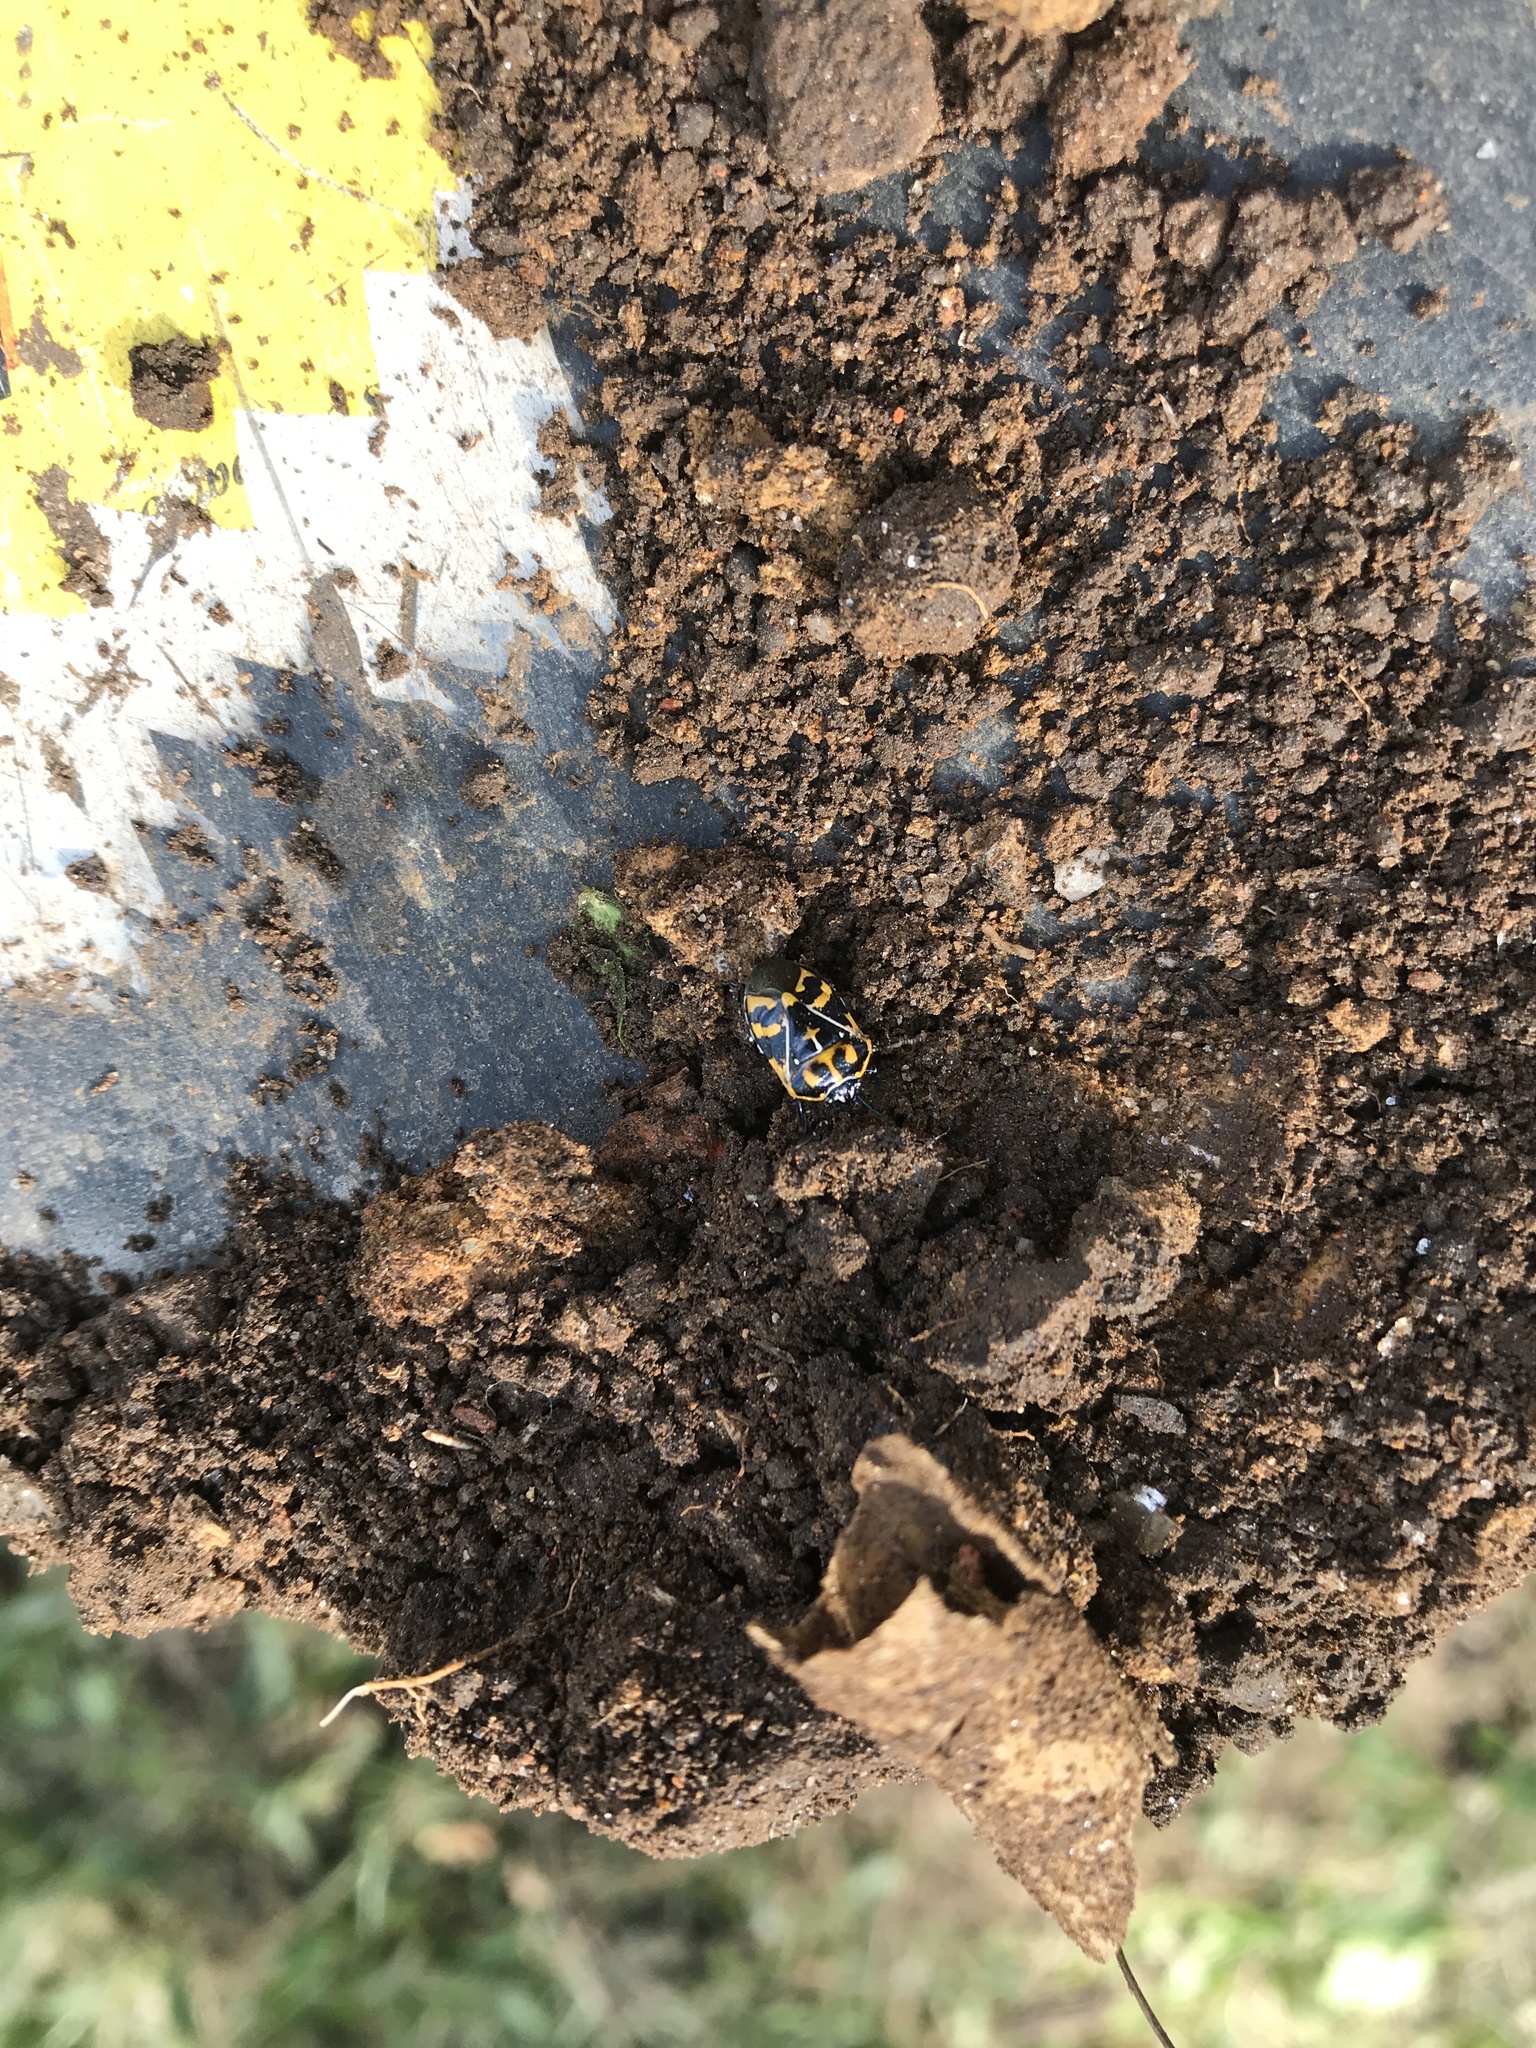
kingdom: Animalia
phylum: Arthropoda
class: Insecta
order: Hemiptera
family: Pentatomidae
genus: Murgantia
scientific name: Murgantia histrionica
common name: Harlequin bug
